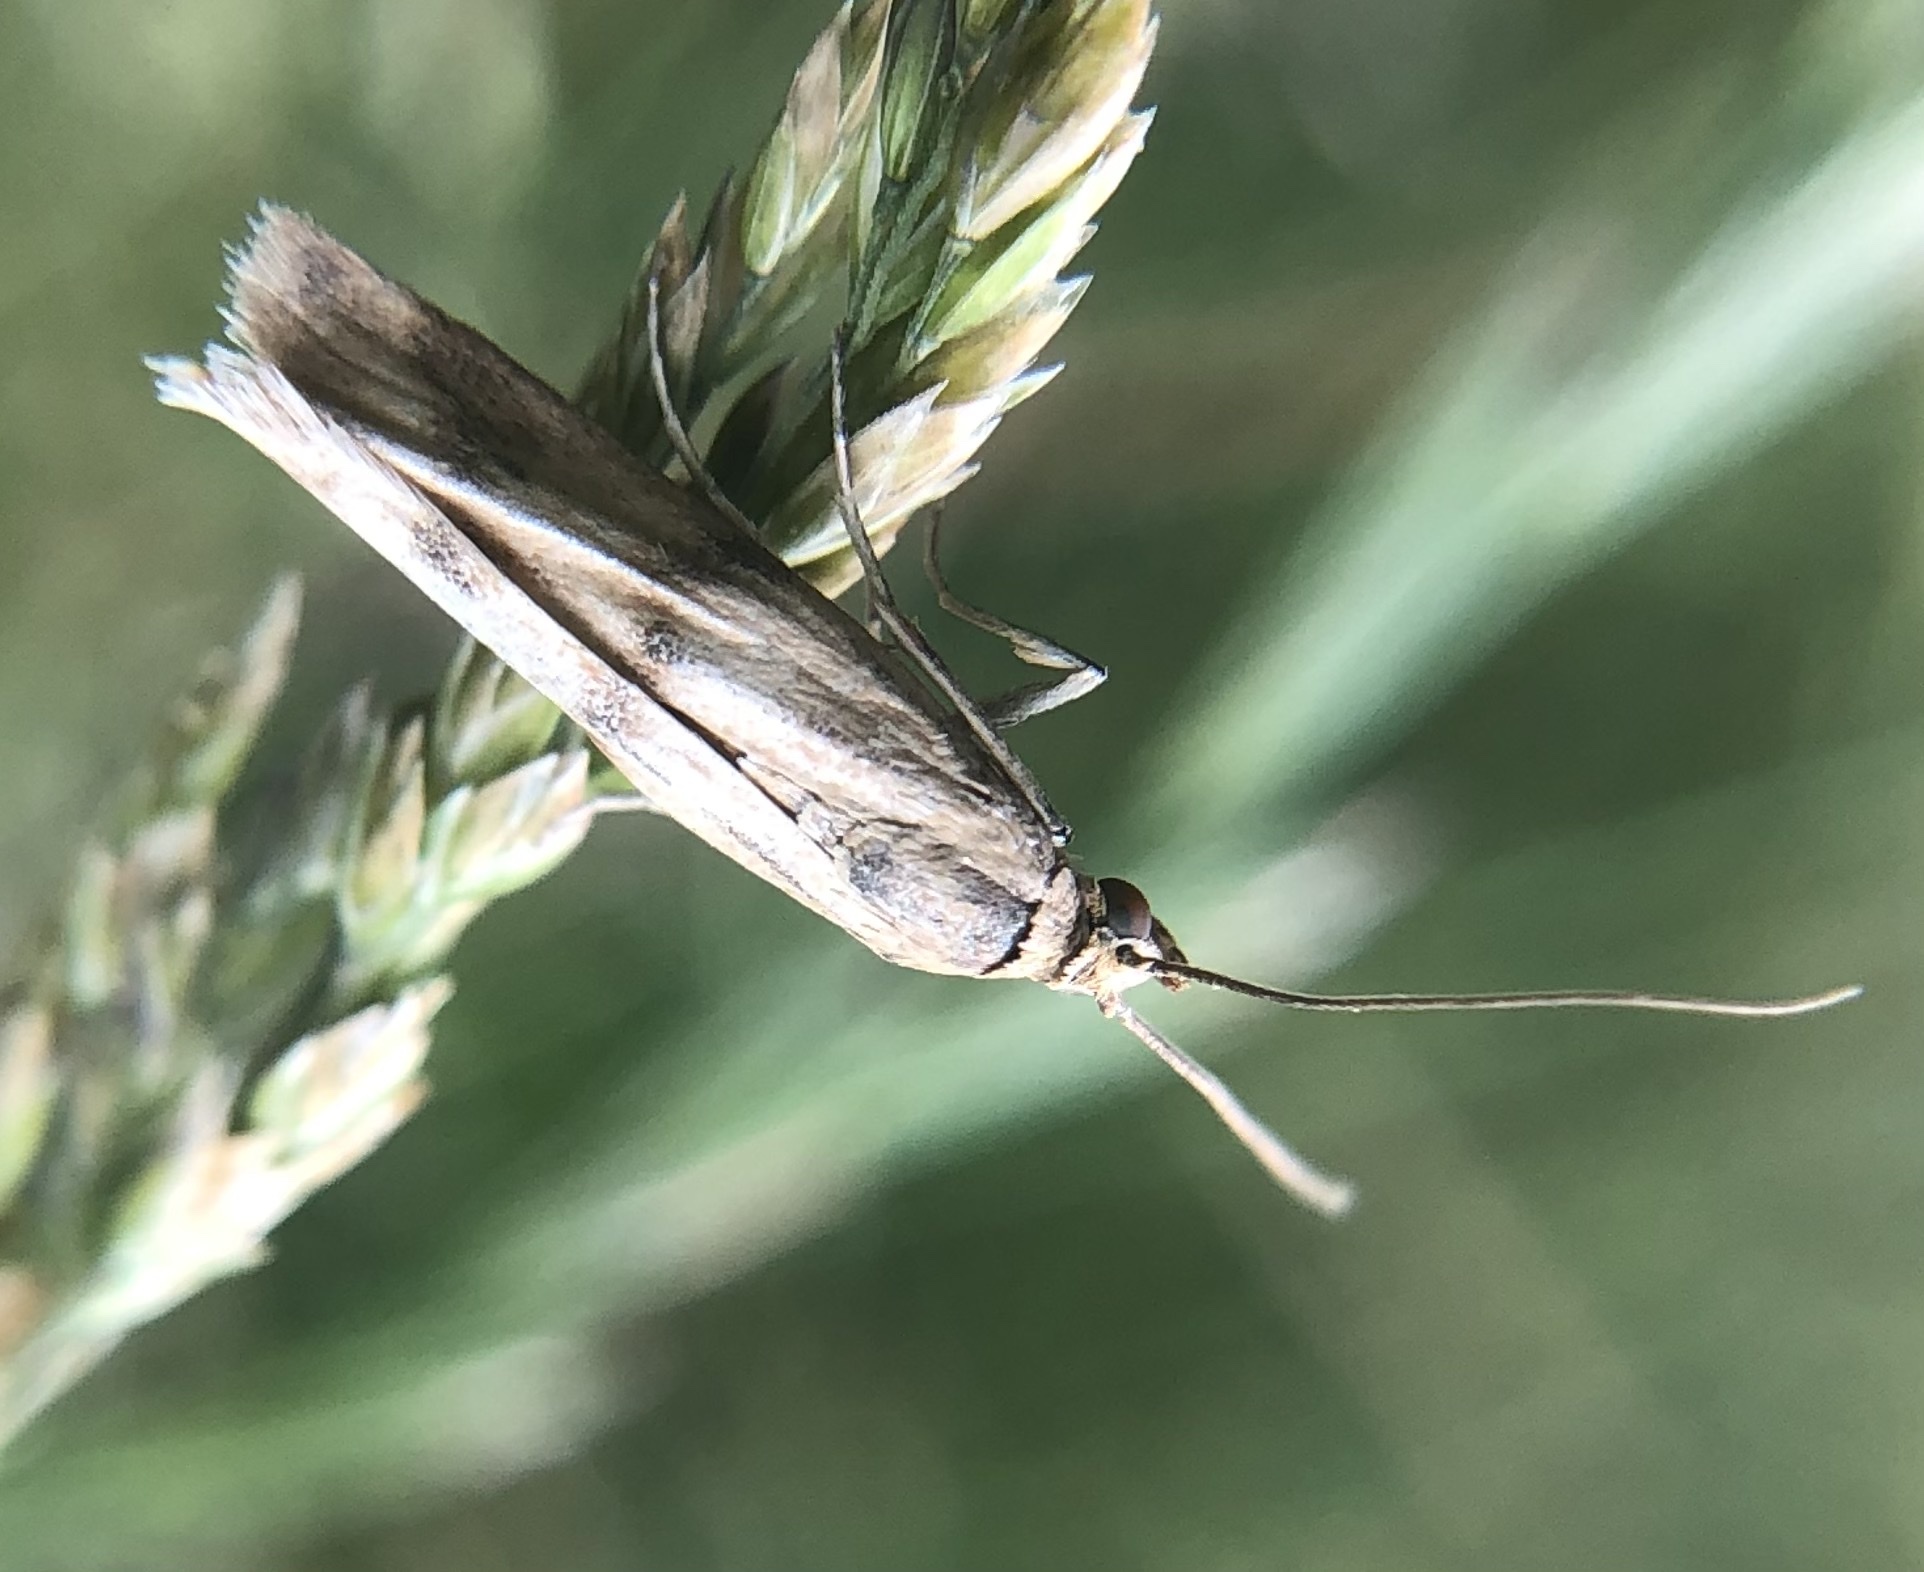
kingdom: Animalia
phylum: Arthropoda
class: Insecta
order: Lepidoptera
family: Pyralidae
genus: Homoeosoma
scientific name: Homoeosoma sinuella
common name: Twin-barred knot-horn
